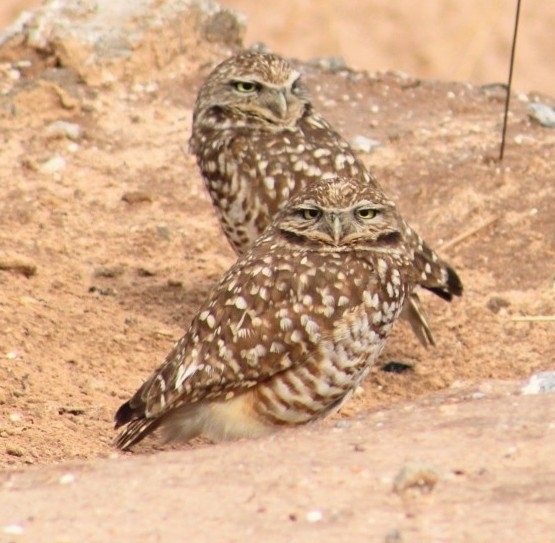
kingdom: Animalia
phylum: Chordata
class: Aves
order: Strigiformes
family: Strigidae
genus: Athene
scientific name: Athene cunicularia
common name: Burrowing owl
